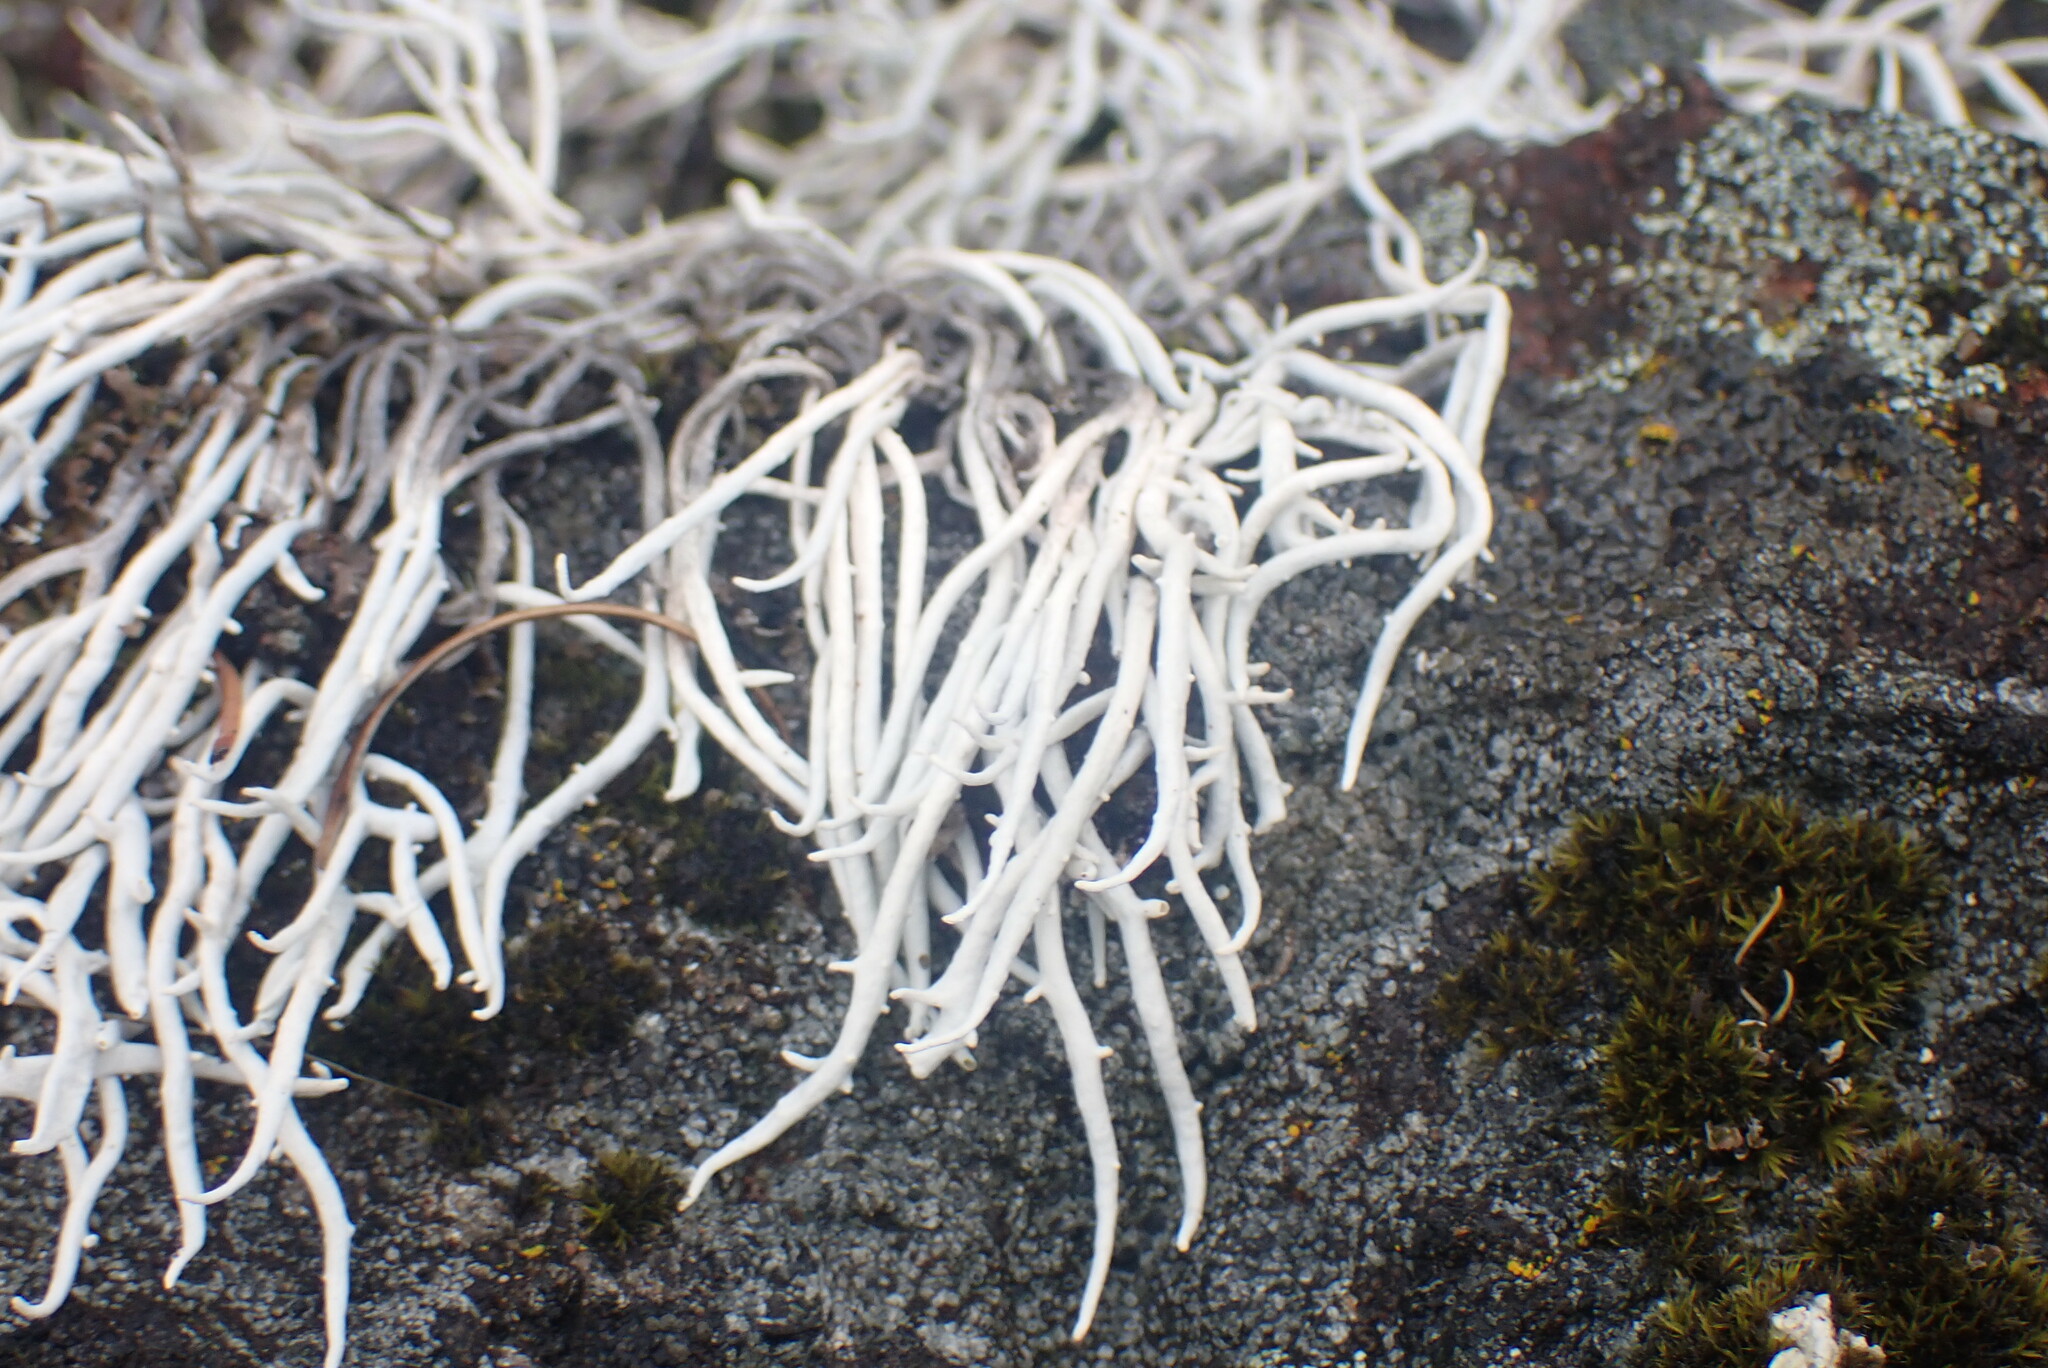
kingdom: Fungi
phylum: Ascomycota
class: Lecanoromycetes
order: Pertusariales
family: Icmadophilaceae
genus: Thamnolia
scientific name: Thamnolia vermicularis
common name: Whiteworm lichen
